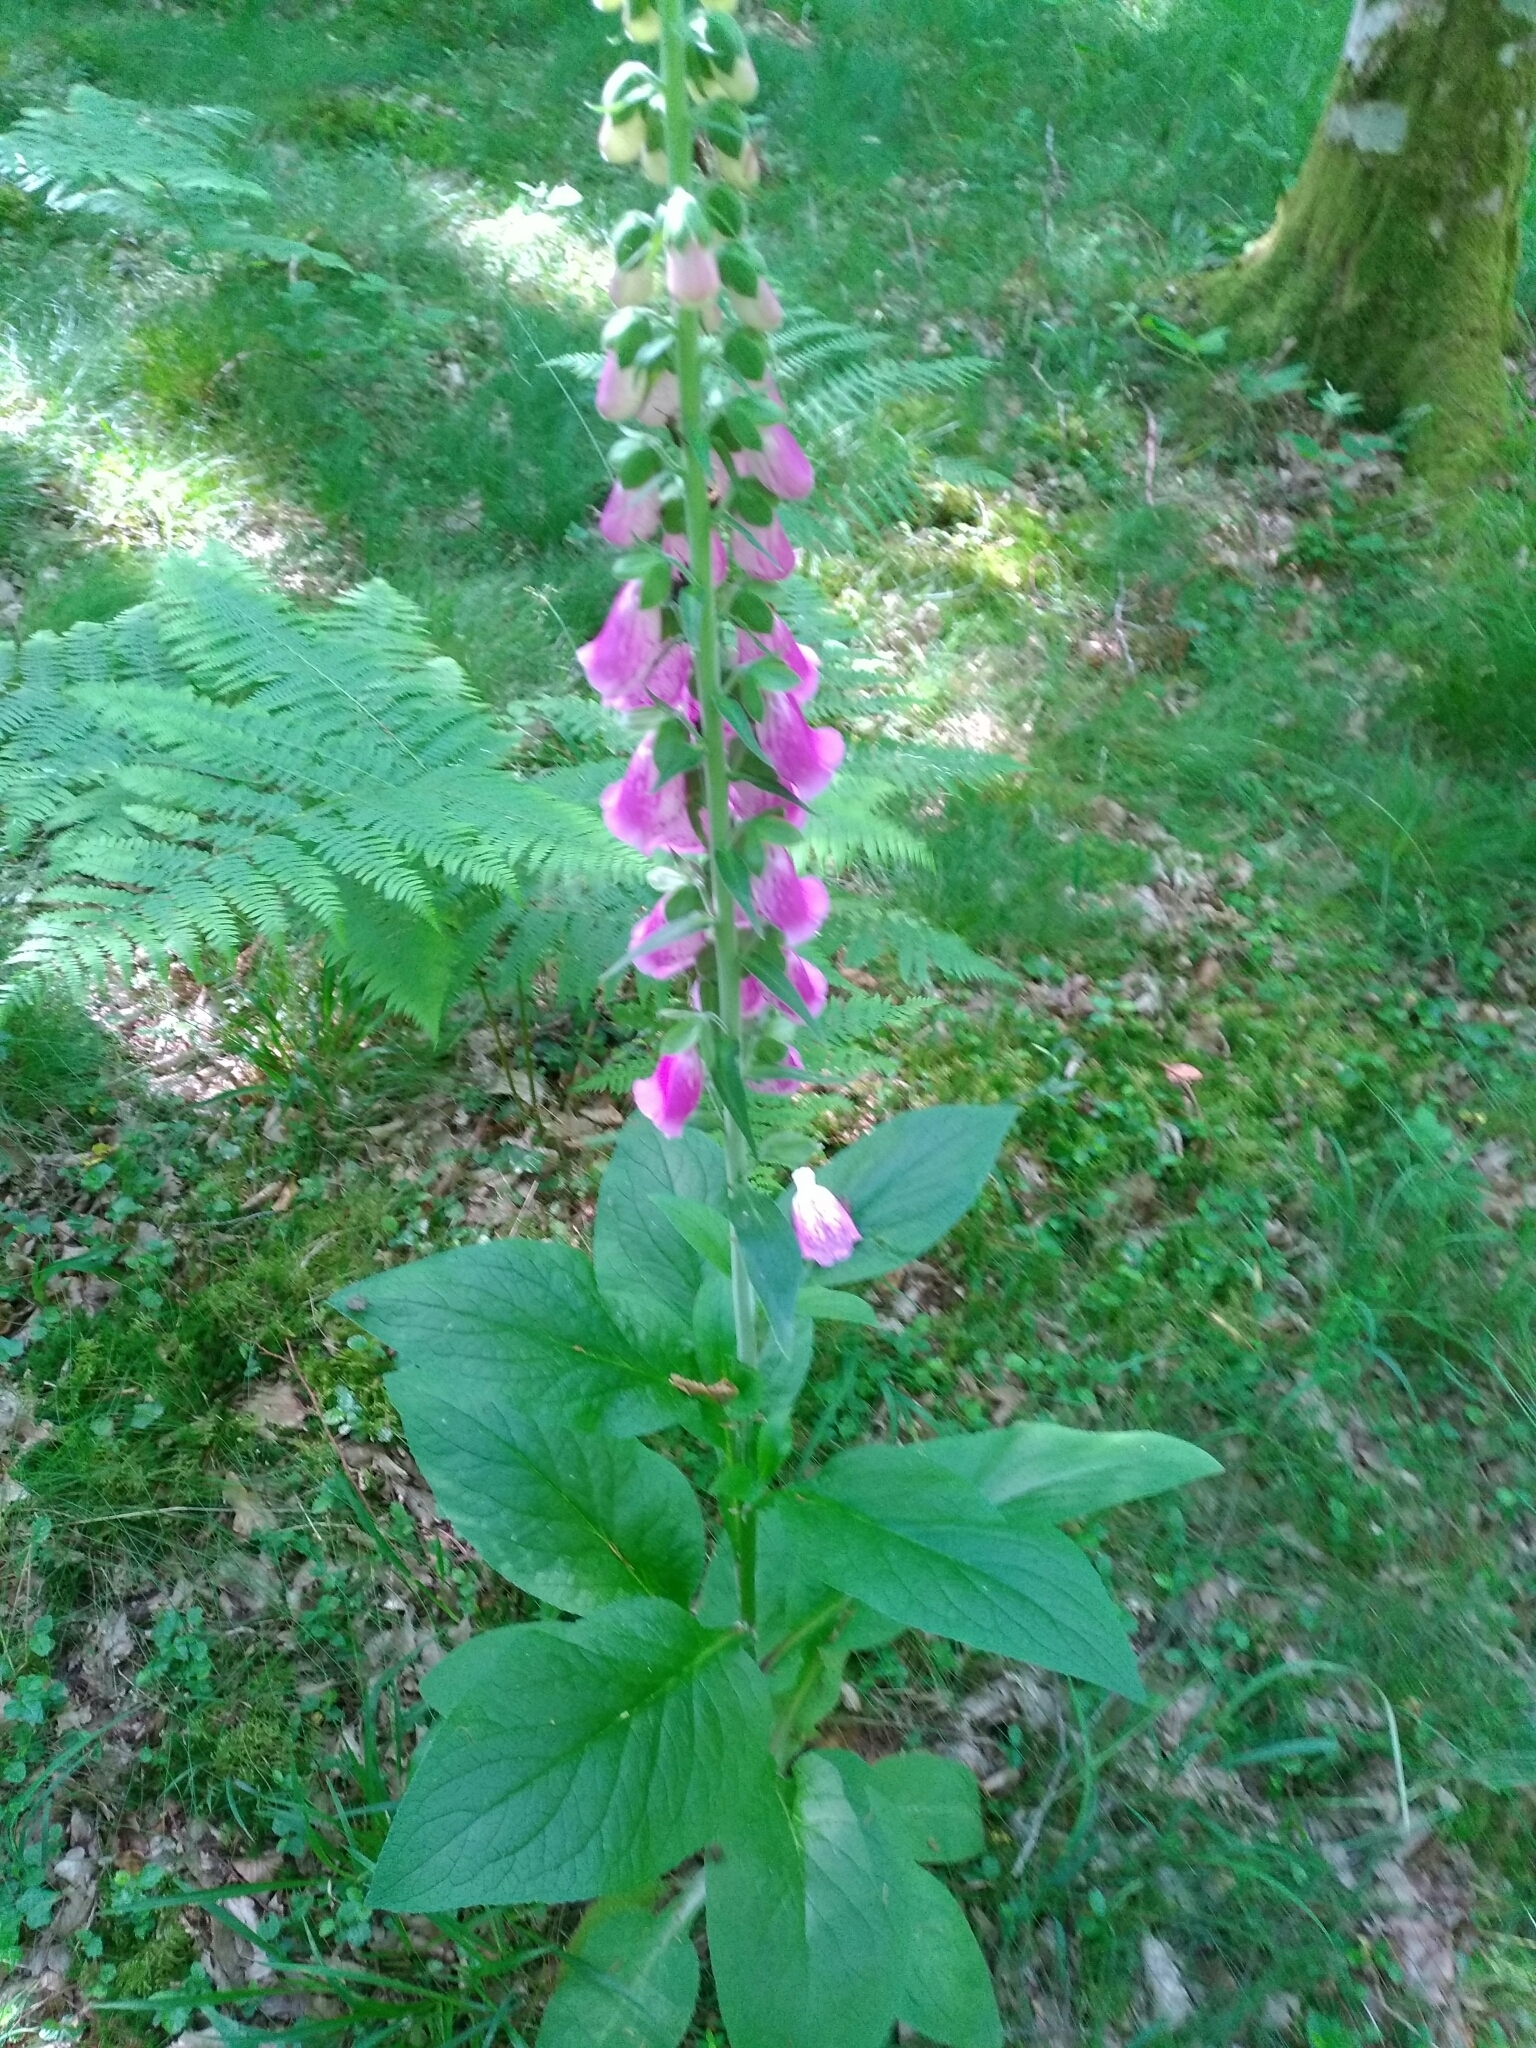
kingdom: Plantae
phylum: Tracheophyta
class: Magnoliopsida
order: Lamiales
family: Plantaginaceae
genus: Digitalis
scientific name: Digitalis purpurea
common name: Foxglove
